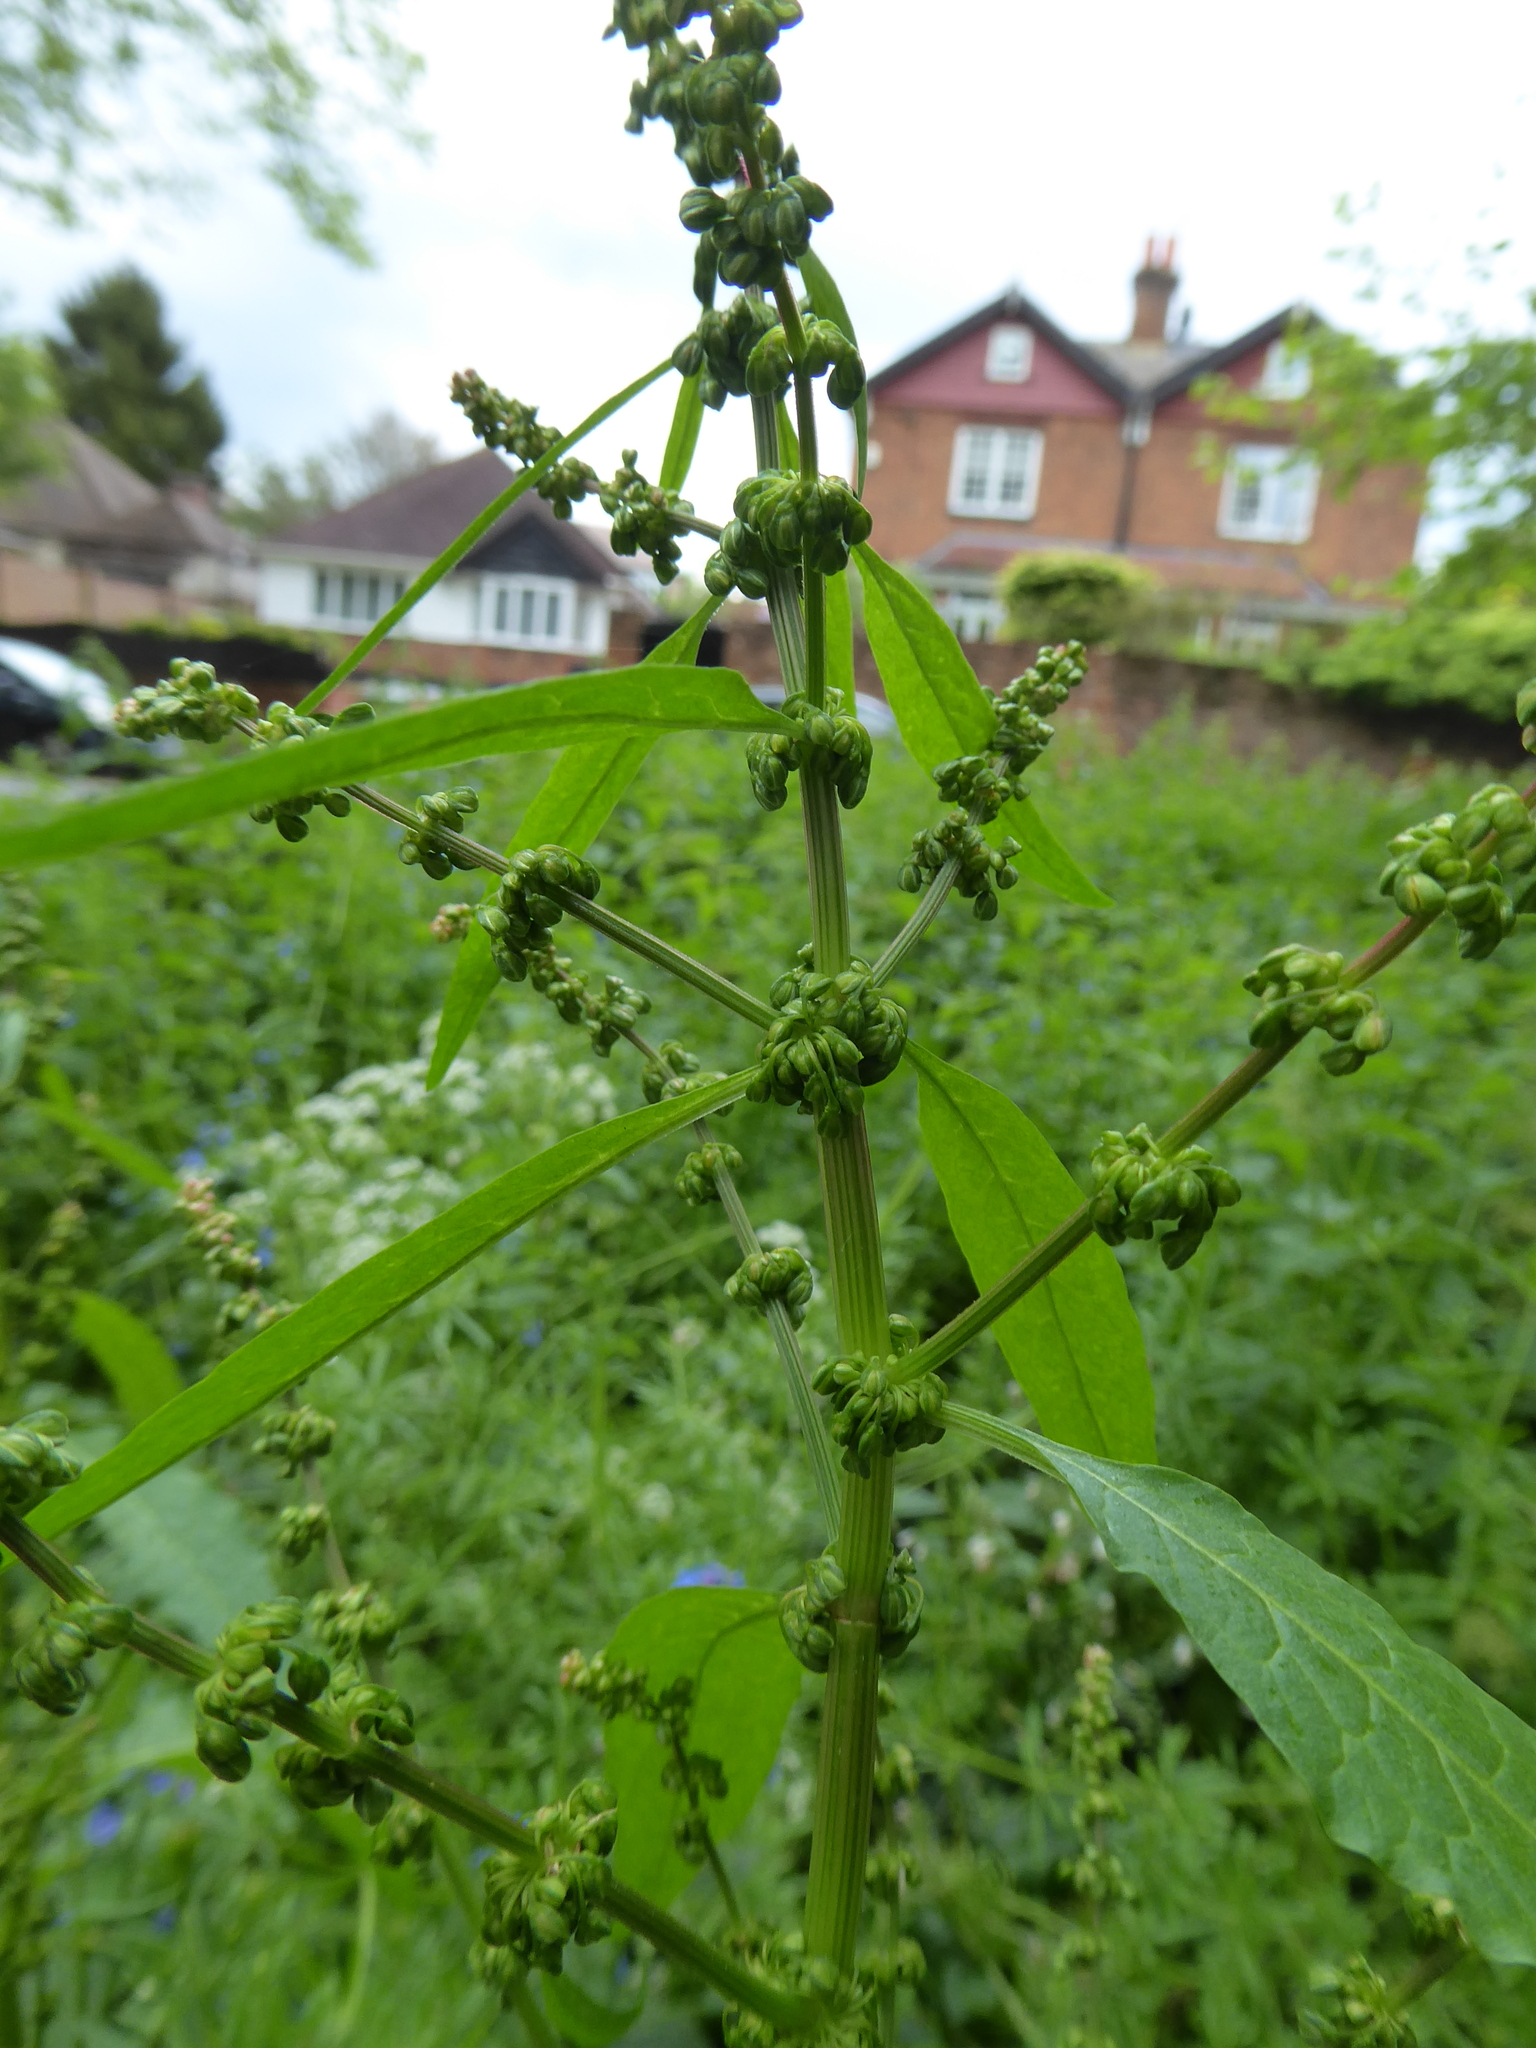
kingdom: Plantae
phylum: Tracheophyta
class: Magnoliopsida
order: Caryophyllales
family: Polygonaceae
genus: Rumex
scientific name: Rumex obtusifolius
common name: Bitter dock
